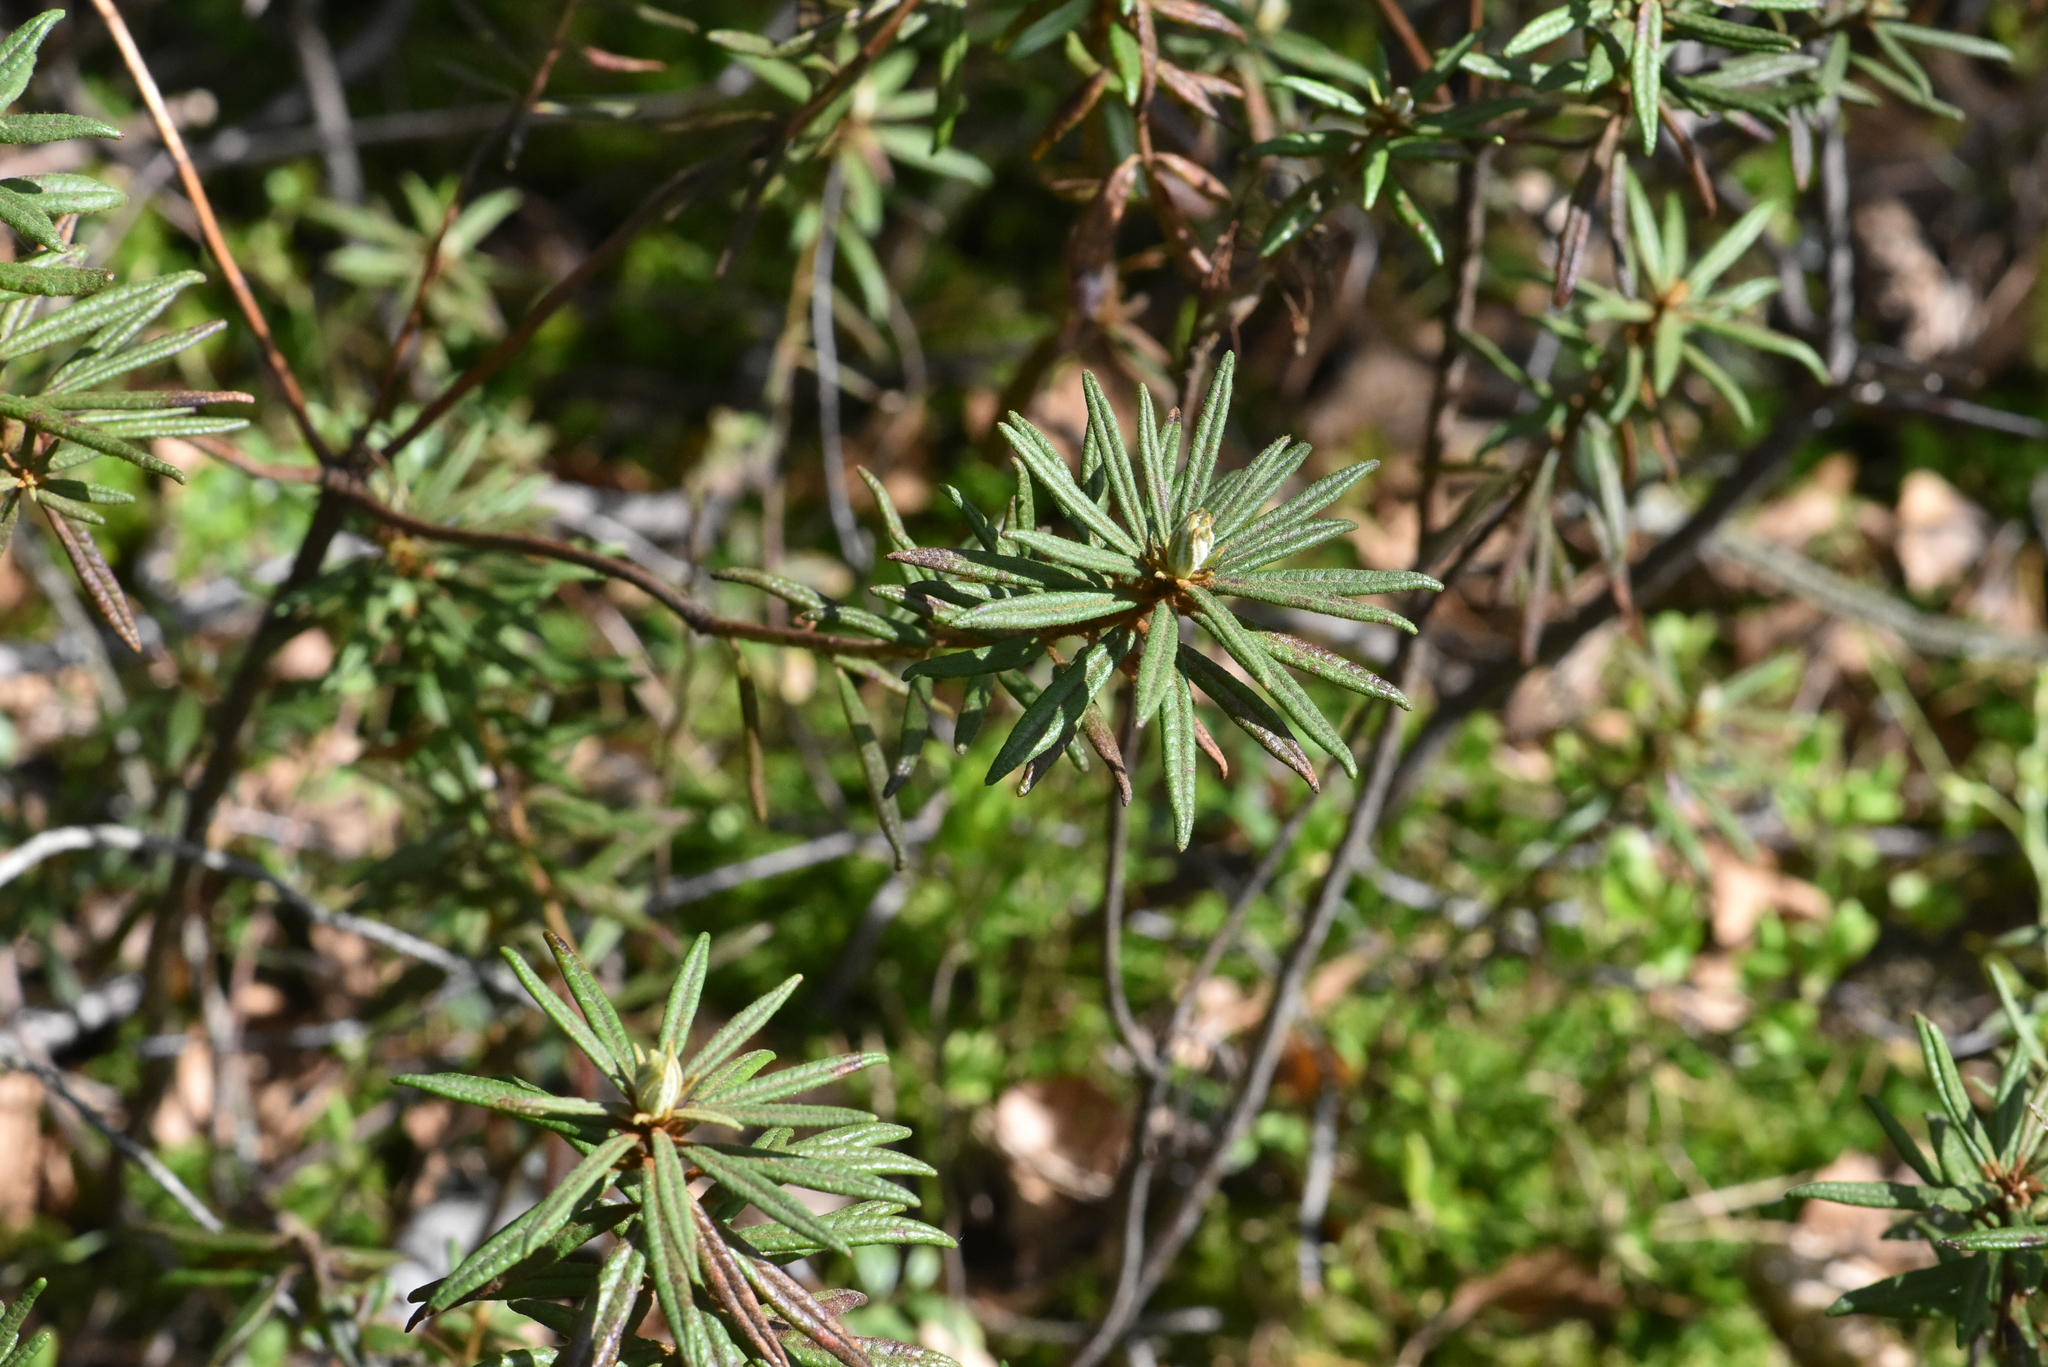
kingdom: Plantae
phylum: Tracheophyta
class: Magnoliopsida
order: Ericales
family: Ericaceae
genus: Rhododendron
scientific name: Rhododendron tomentosum
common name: Marsh labrador tea
